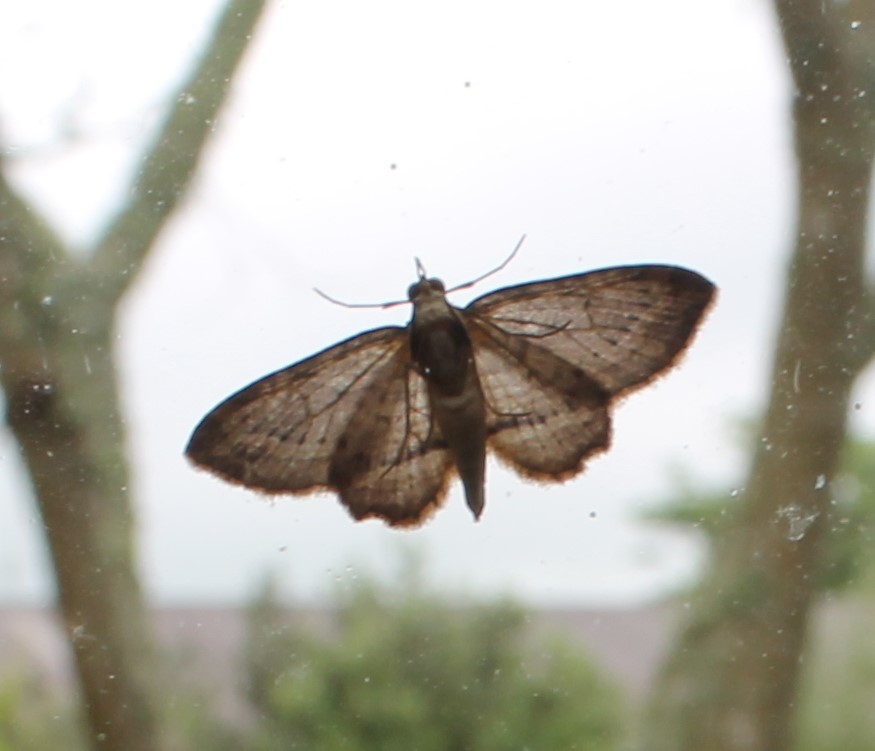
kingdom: Animalia
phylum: Arthropoda
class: Insecta
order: Lepidoptera
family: Geometridae
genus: Chloroclystis
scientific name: Chloroclystis filata
